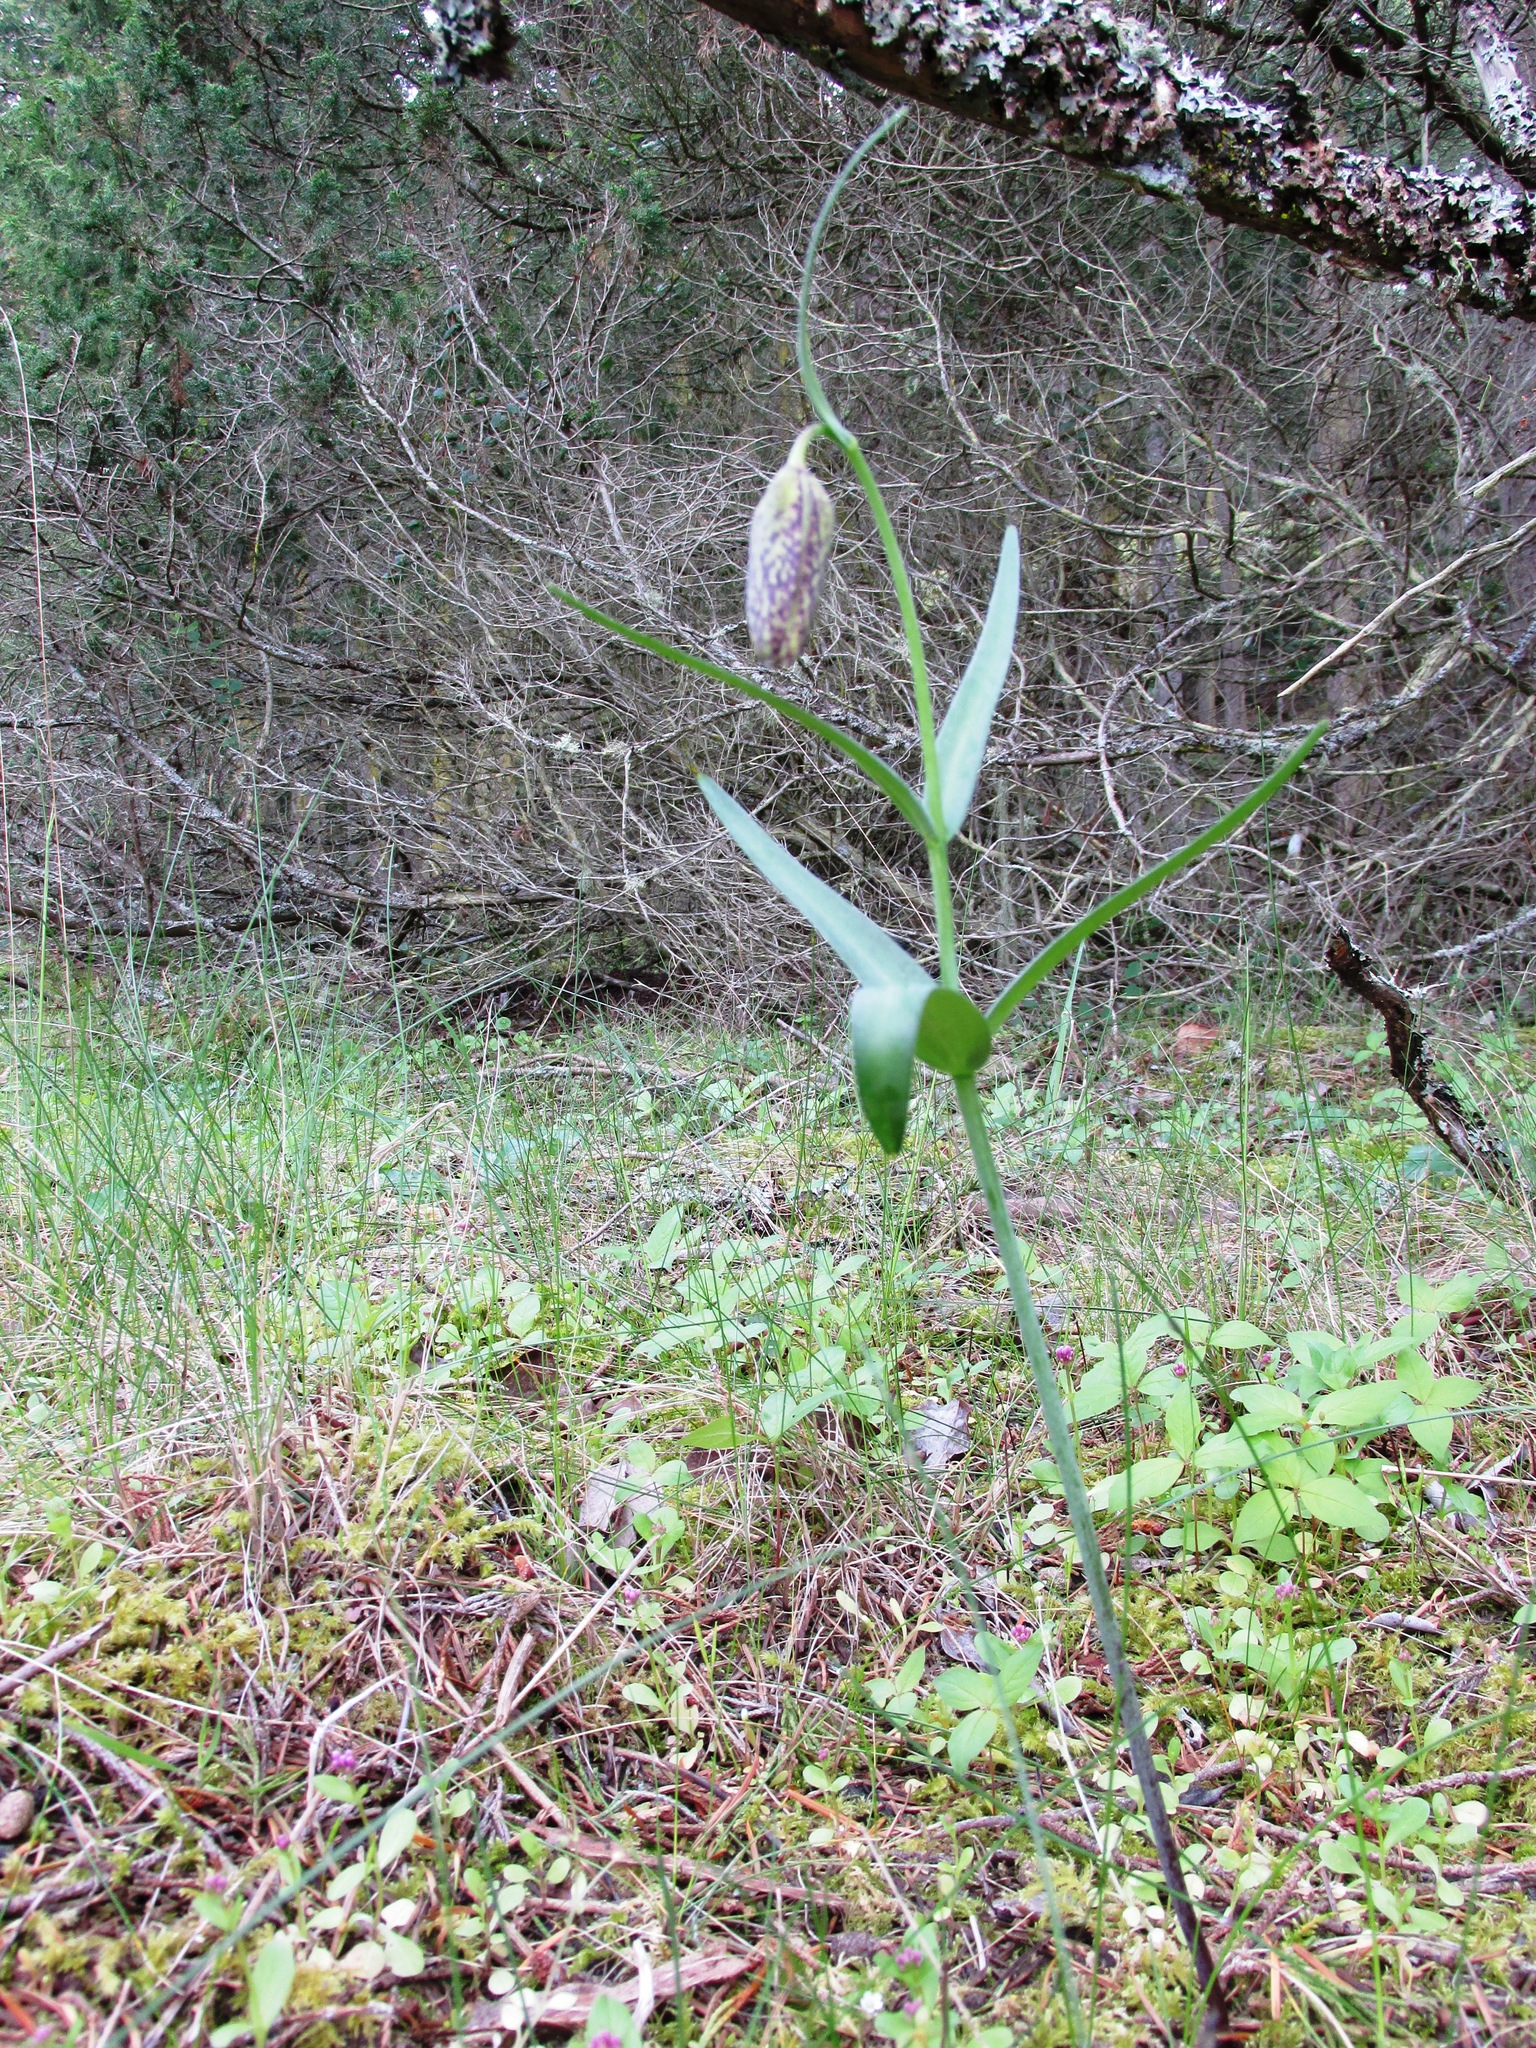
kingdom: Plantae
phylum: Tracheophyta
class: Liliopsida
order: Liliales
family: Liliaceae
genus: Fritillaria
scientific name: Fritillaria affinis
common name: Ojai fritillary
